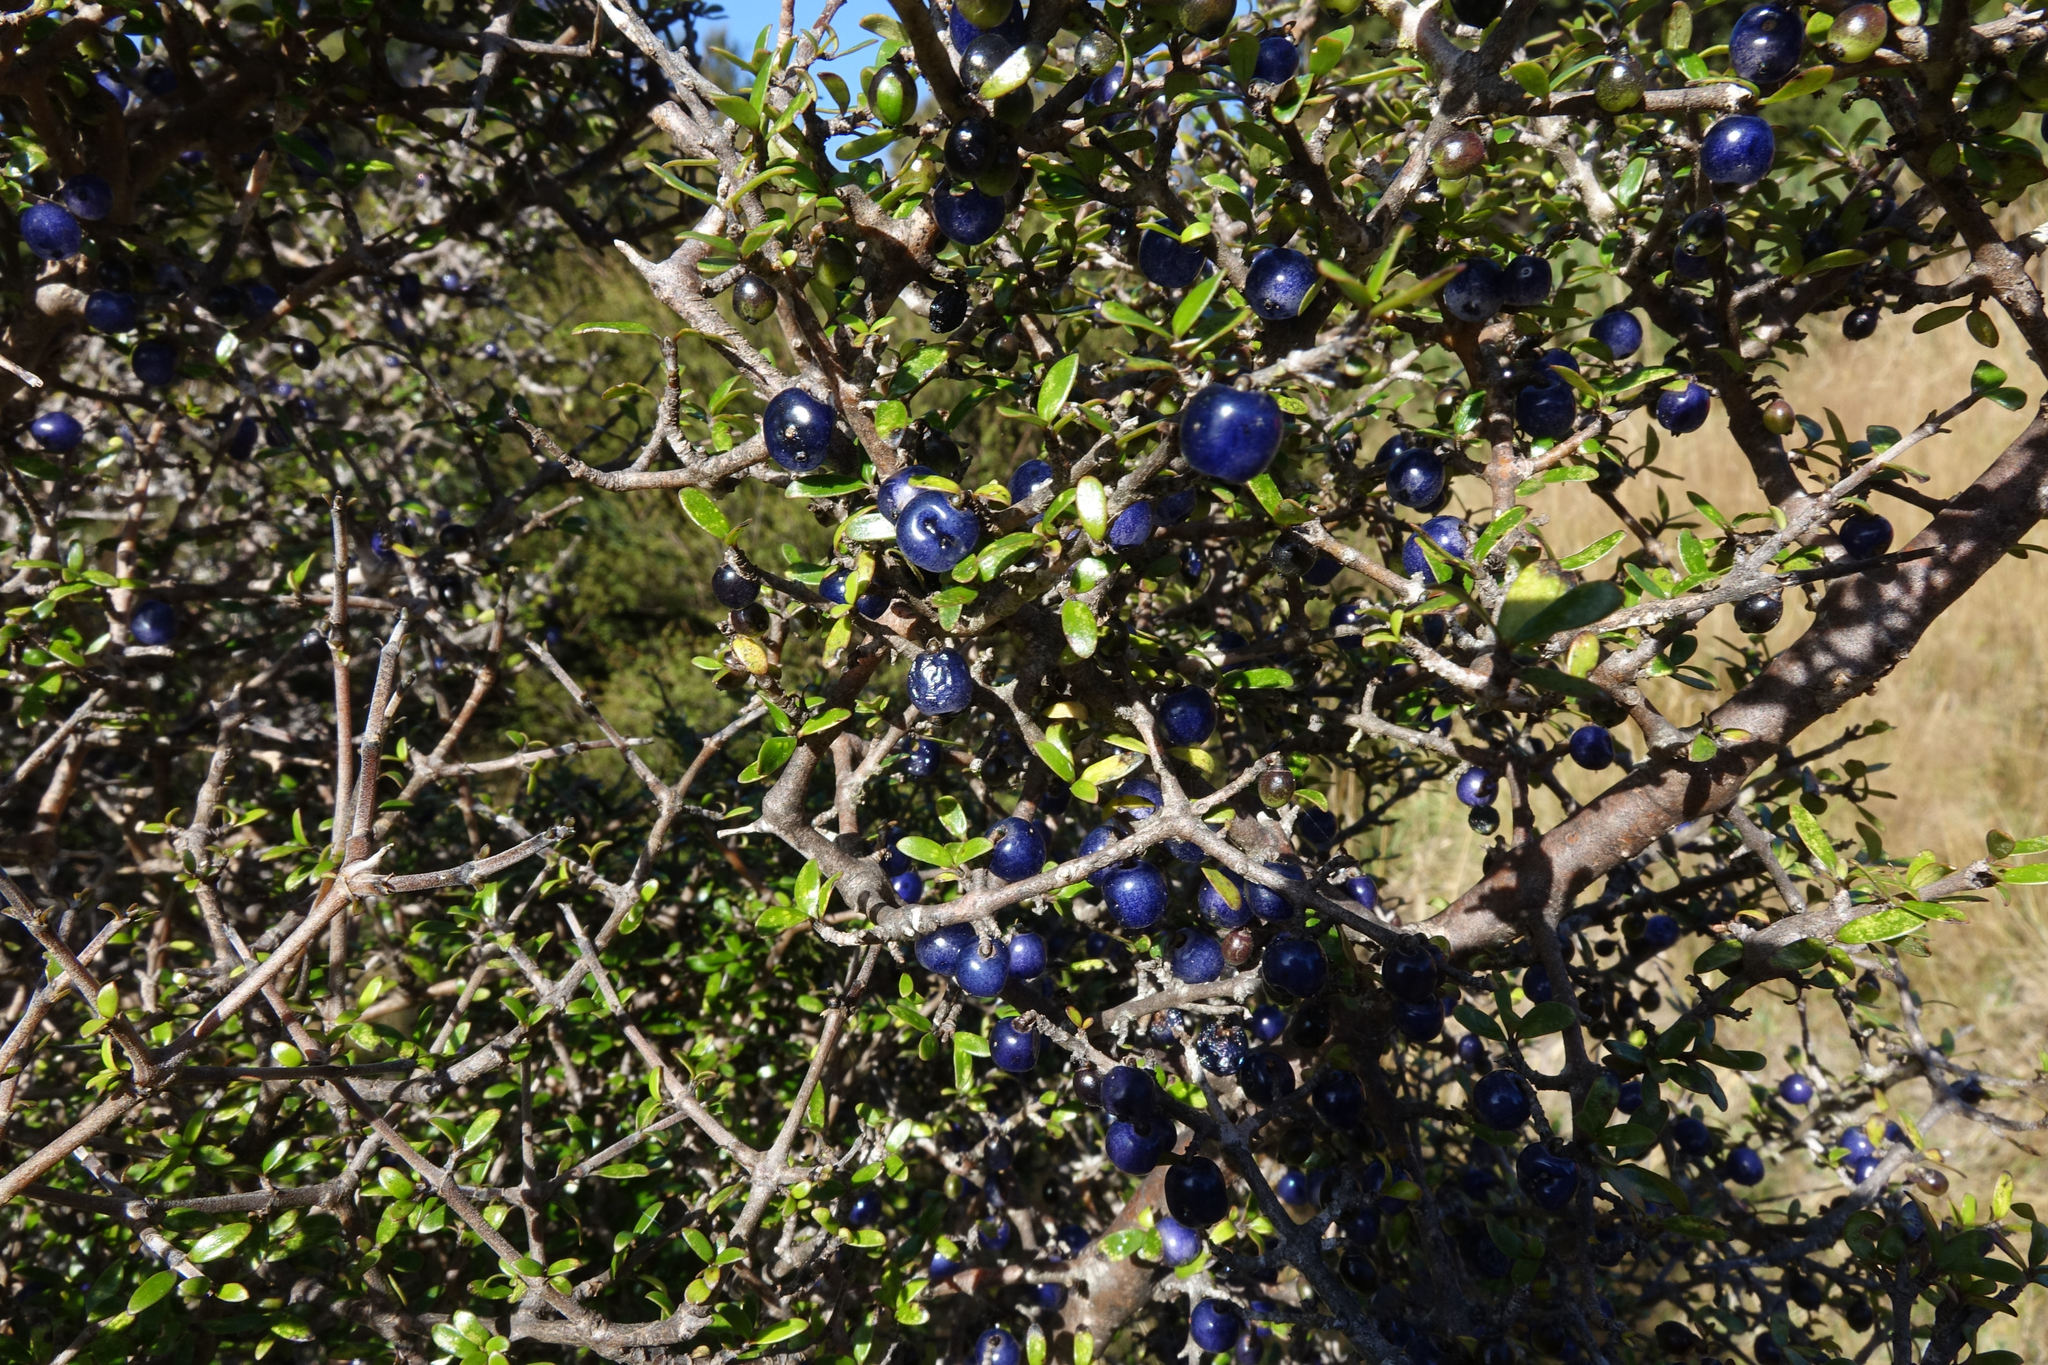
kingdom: Plantae
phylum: Tracheophyta
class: Magnoliopsida
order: Gentianales
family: Rubiaceae
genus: Coprosma
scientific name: Coprosma propinqua
